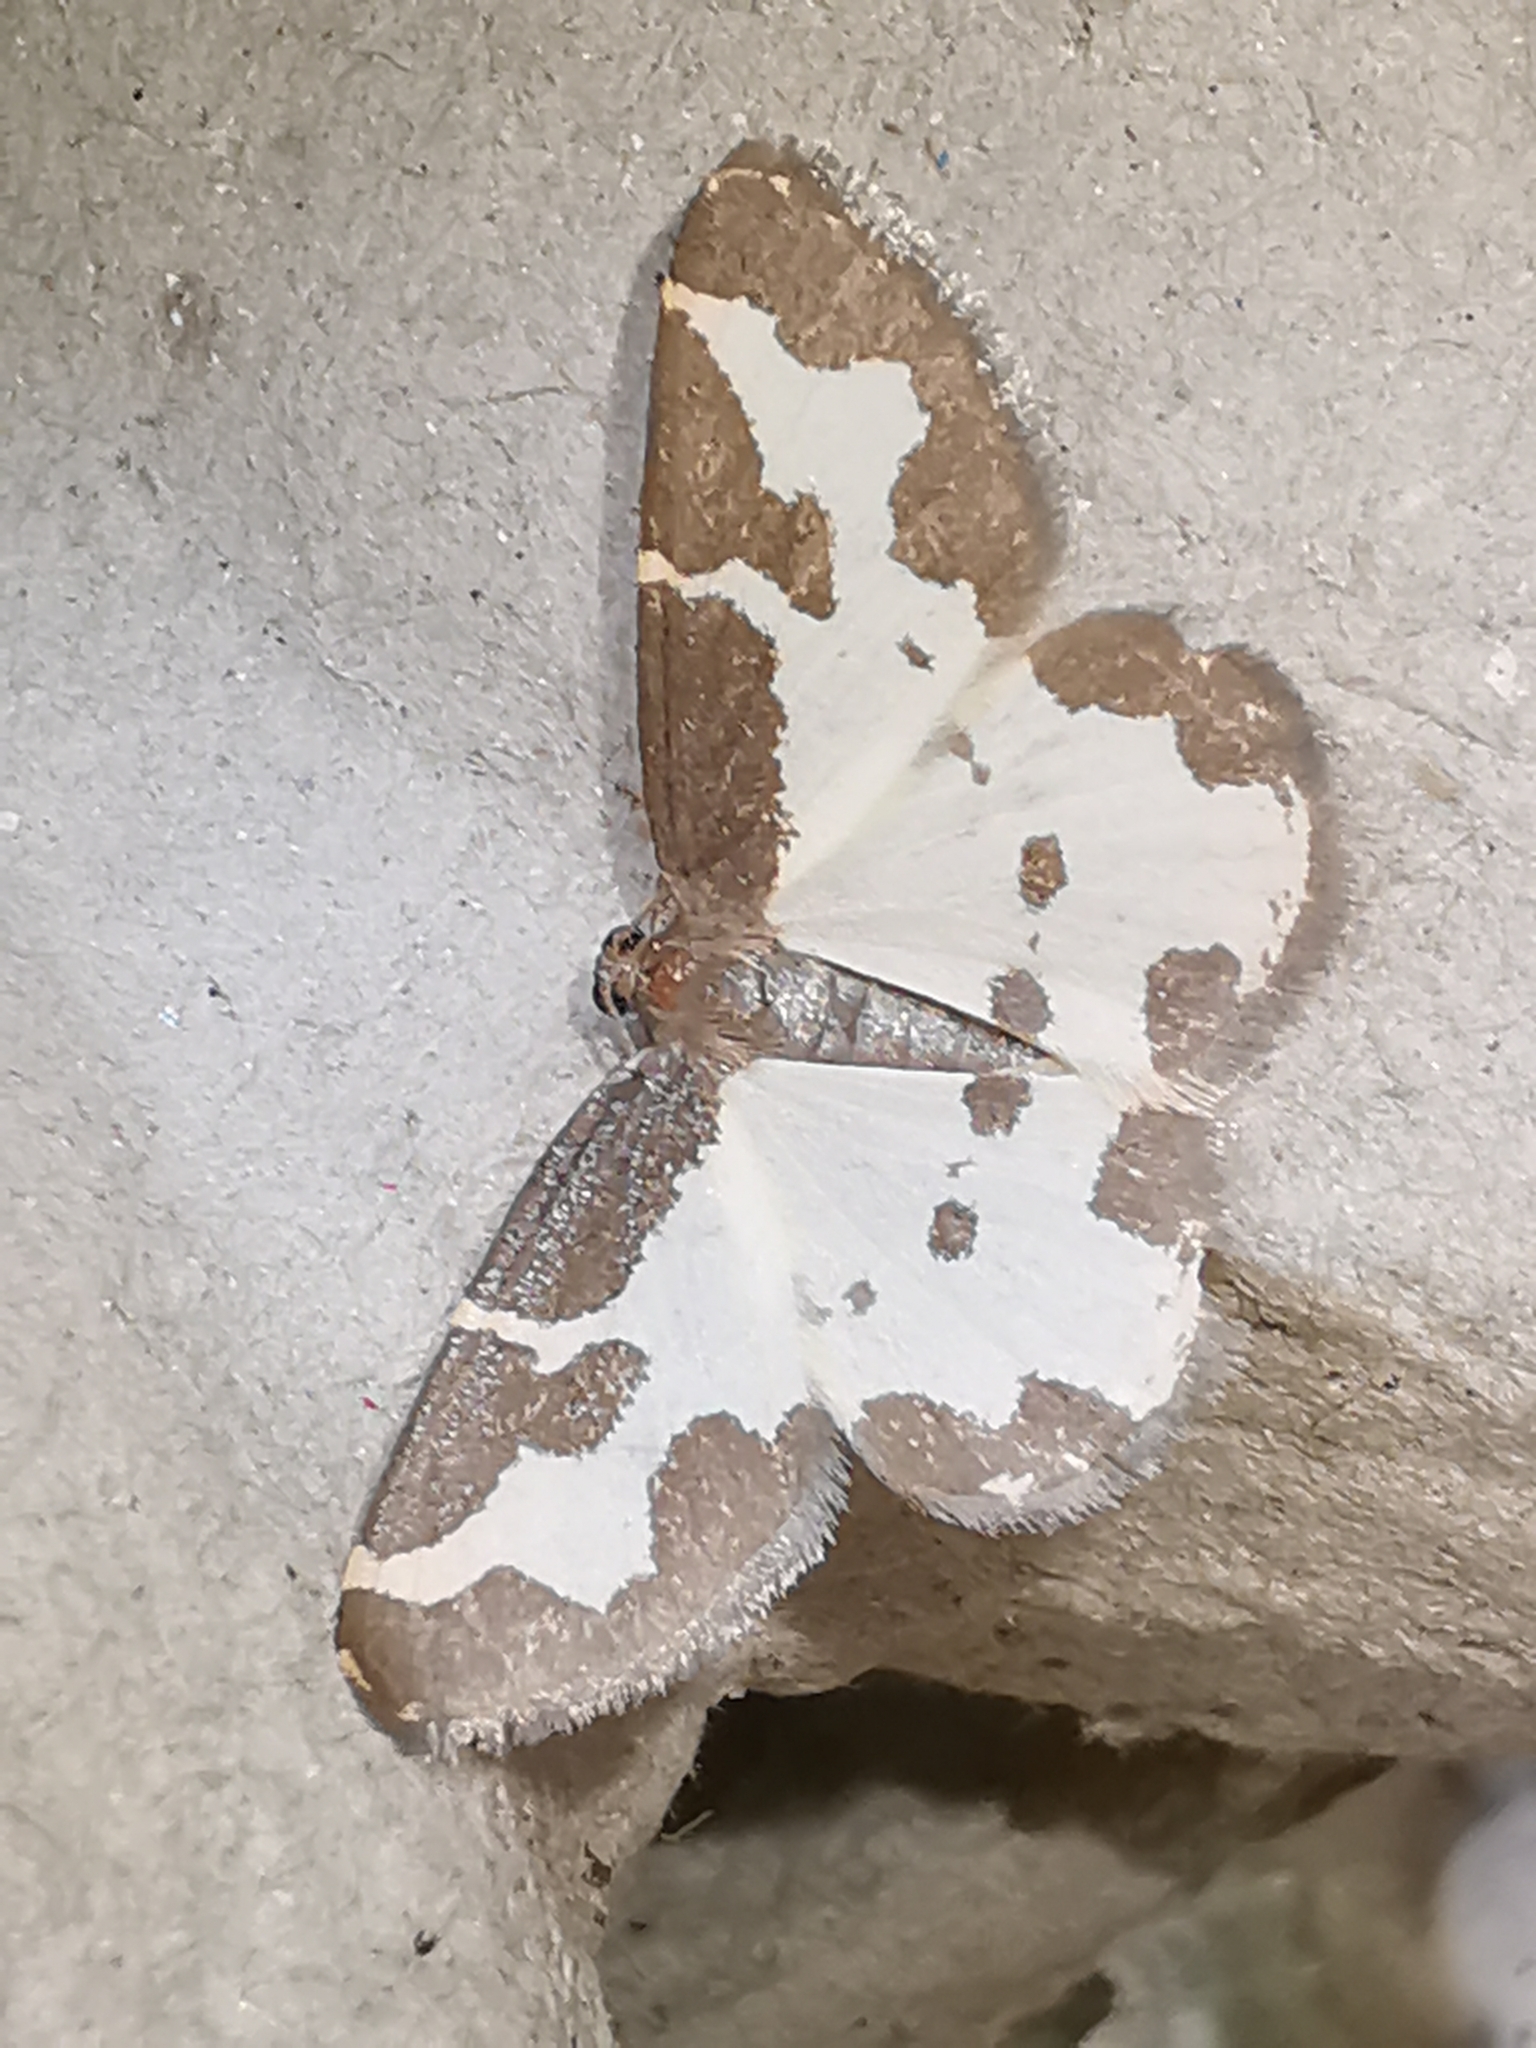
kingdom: Animalia
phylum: Arthropoda
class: Insecta
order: Lepidoptera
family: Geometridae
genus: Lomaspilis
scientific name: Lomaspilis marginata
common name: Clouded border
